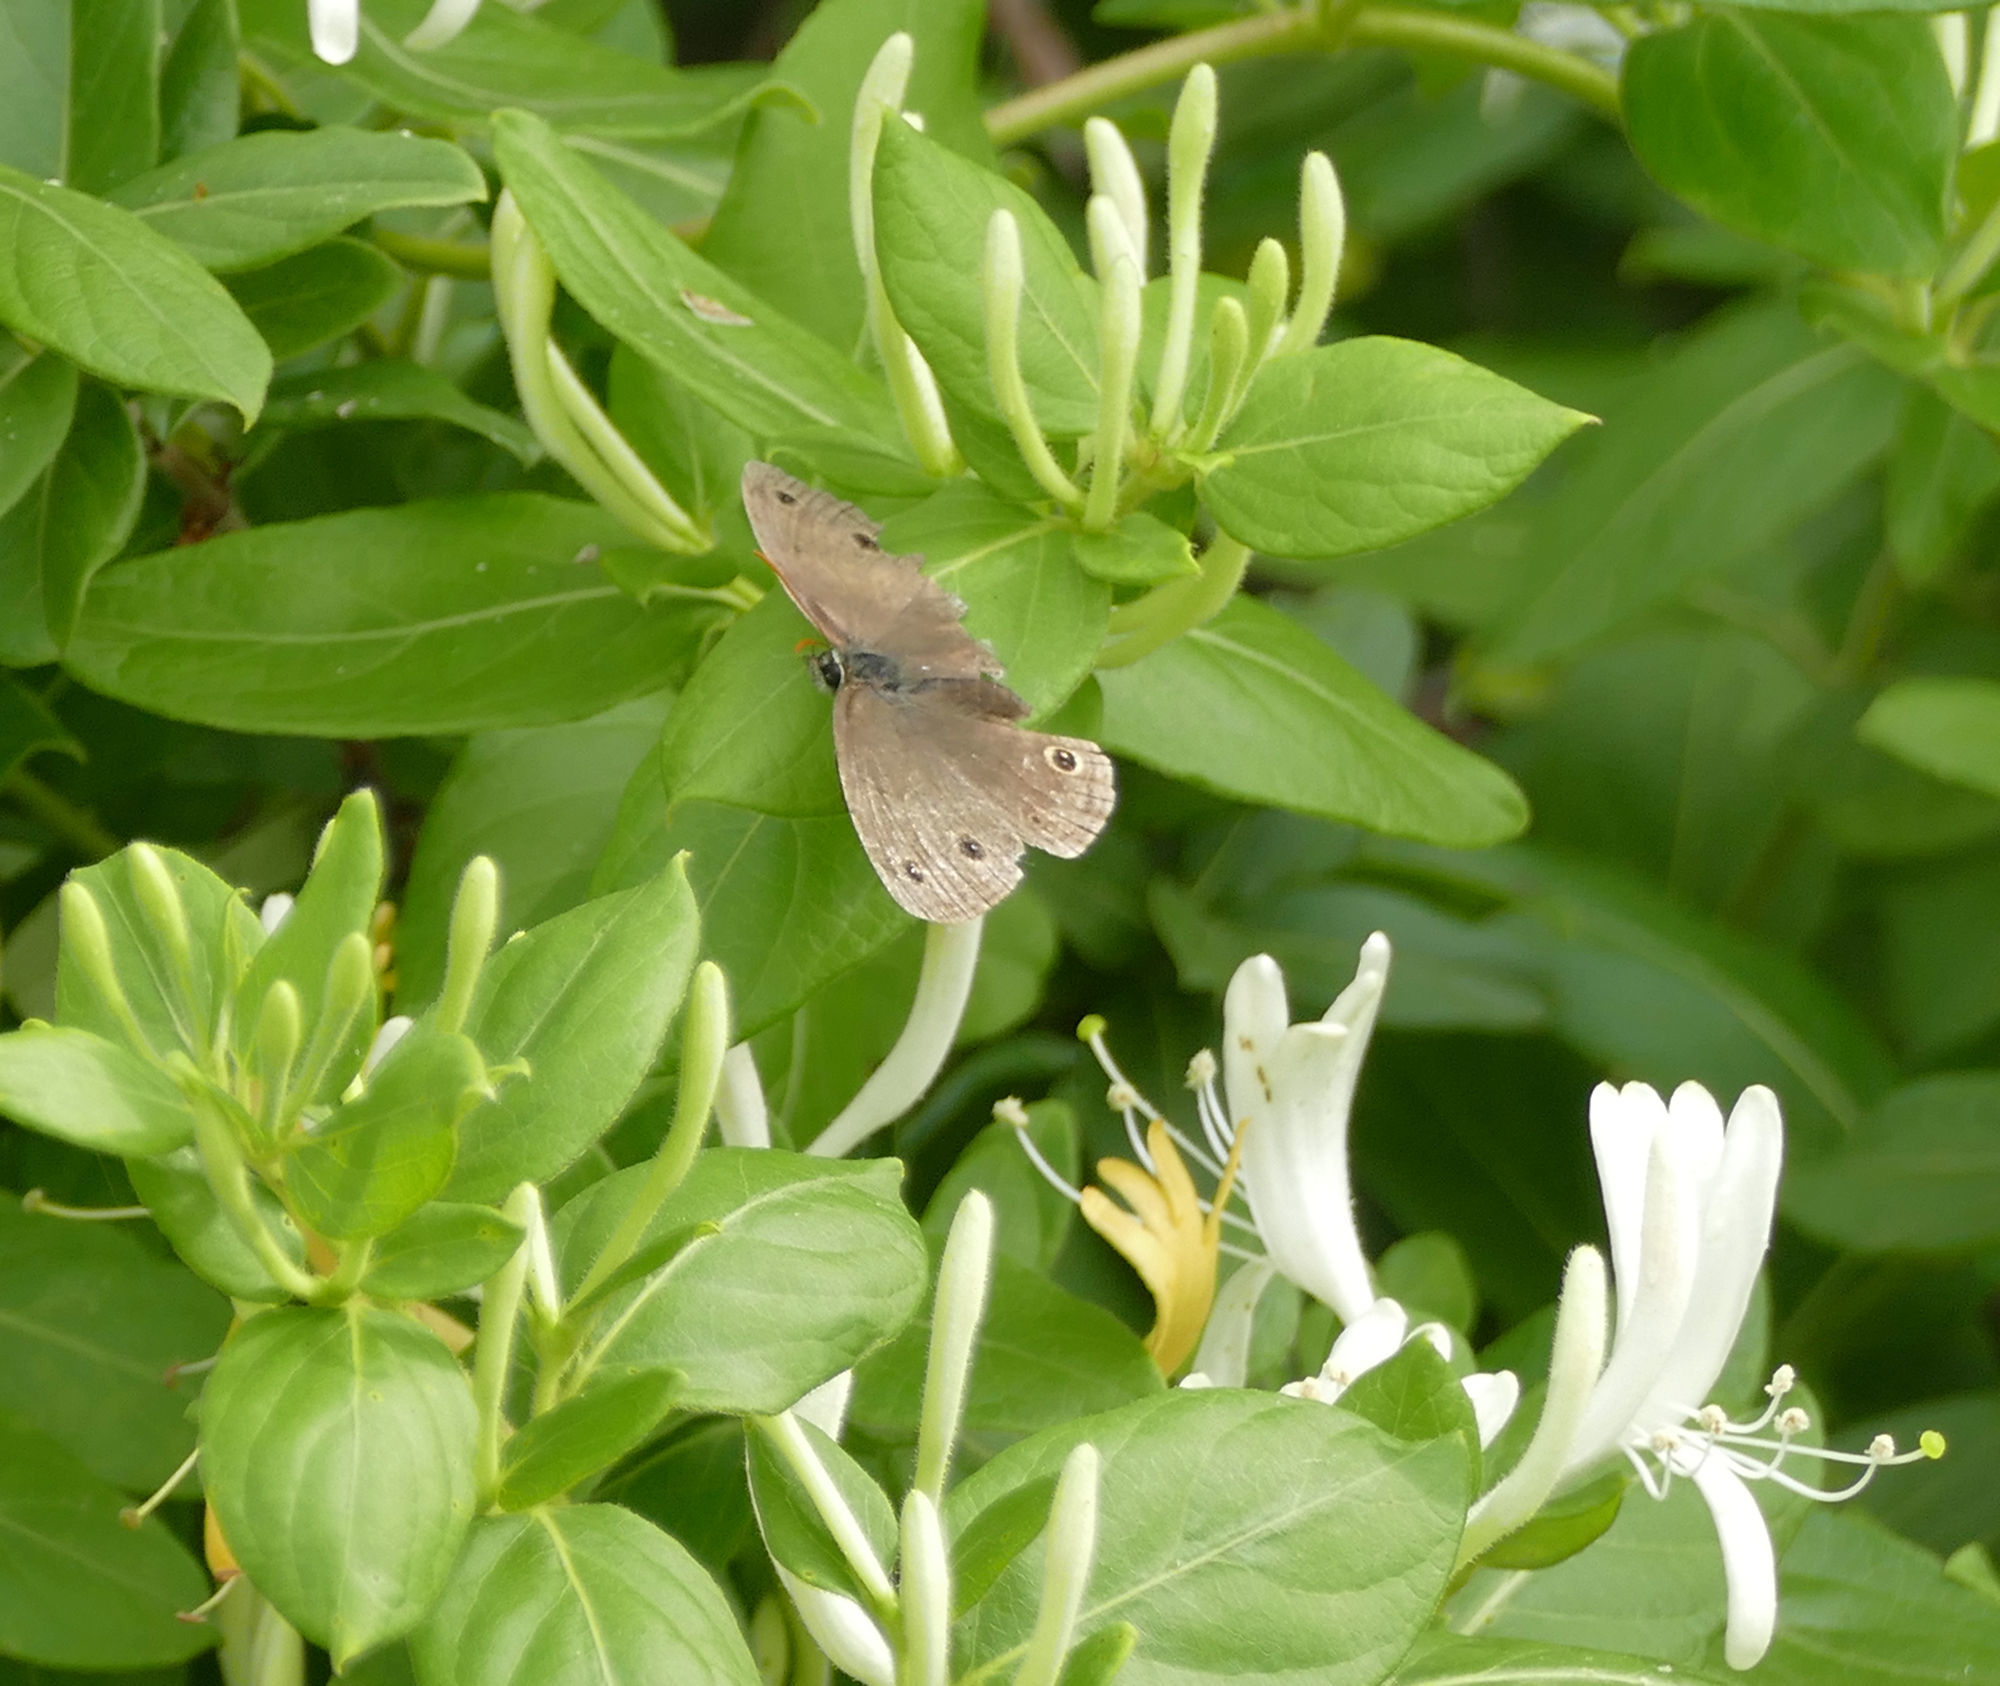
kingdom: Animalia
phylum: Arthropoda
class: Insecta
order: Lepidoptera
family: Nymphalidae
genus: Euptychia
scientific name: Euptychia cymela
